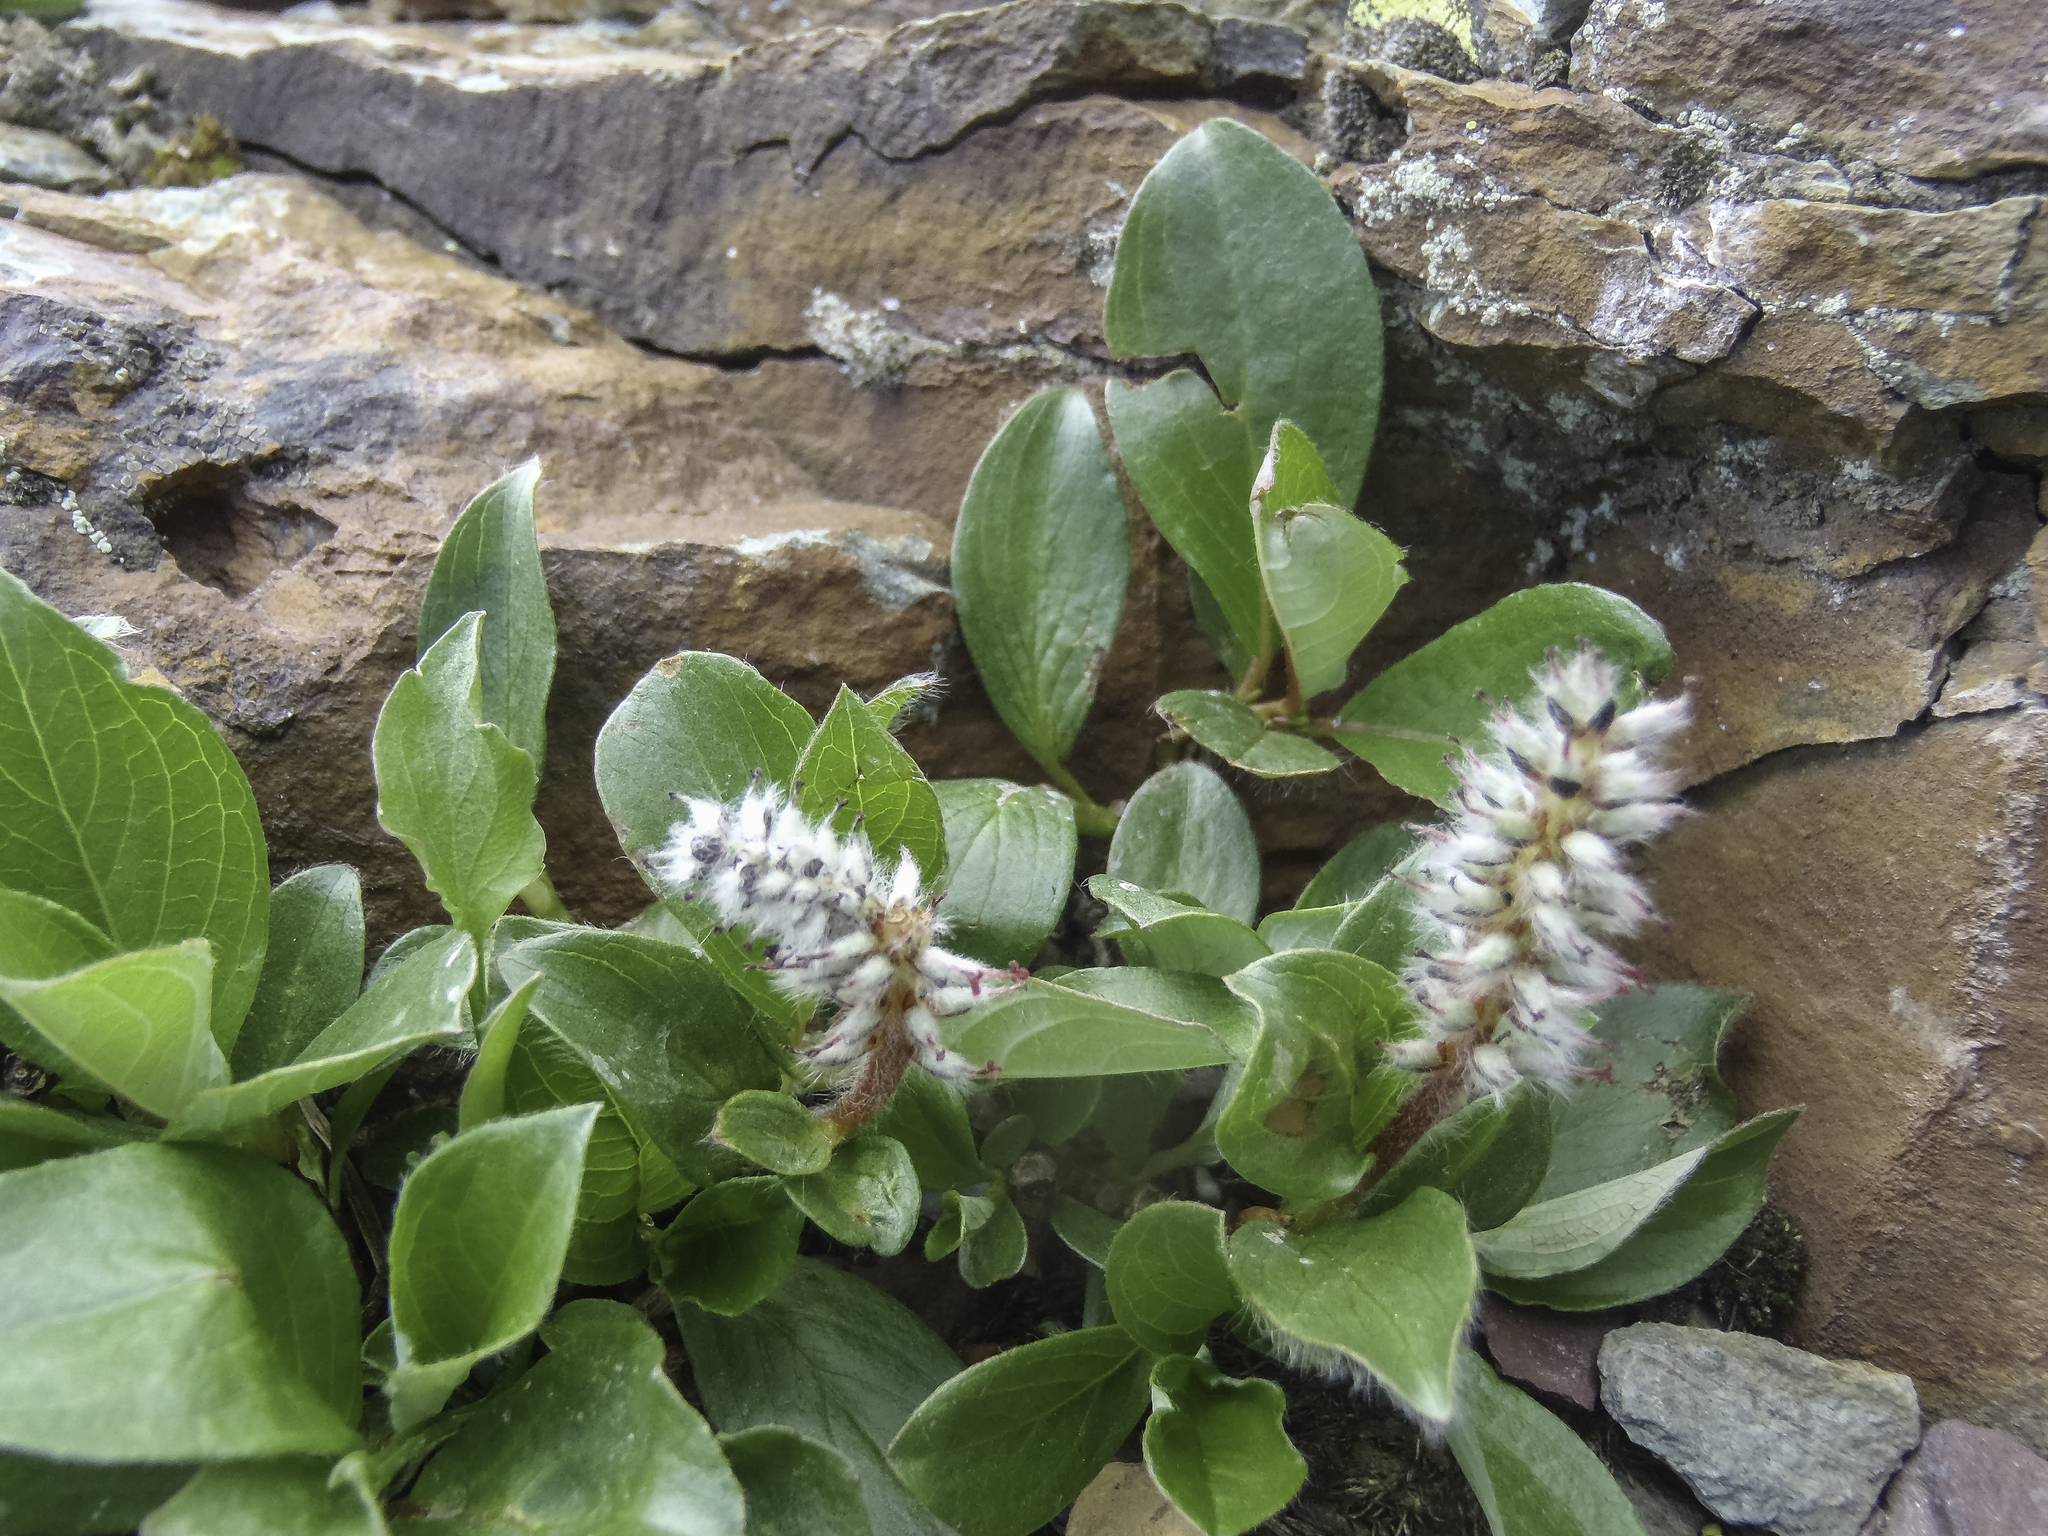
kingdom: Plantae
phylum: Tracheophyta
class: Magnoliopsida
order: Malpighiales
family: Salicaceae
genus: Salix
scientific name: Salix petrophila
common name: Rocky mountain willow
